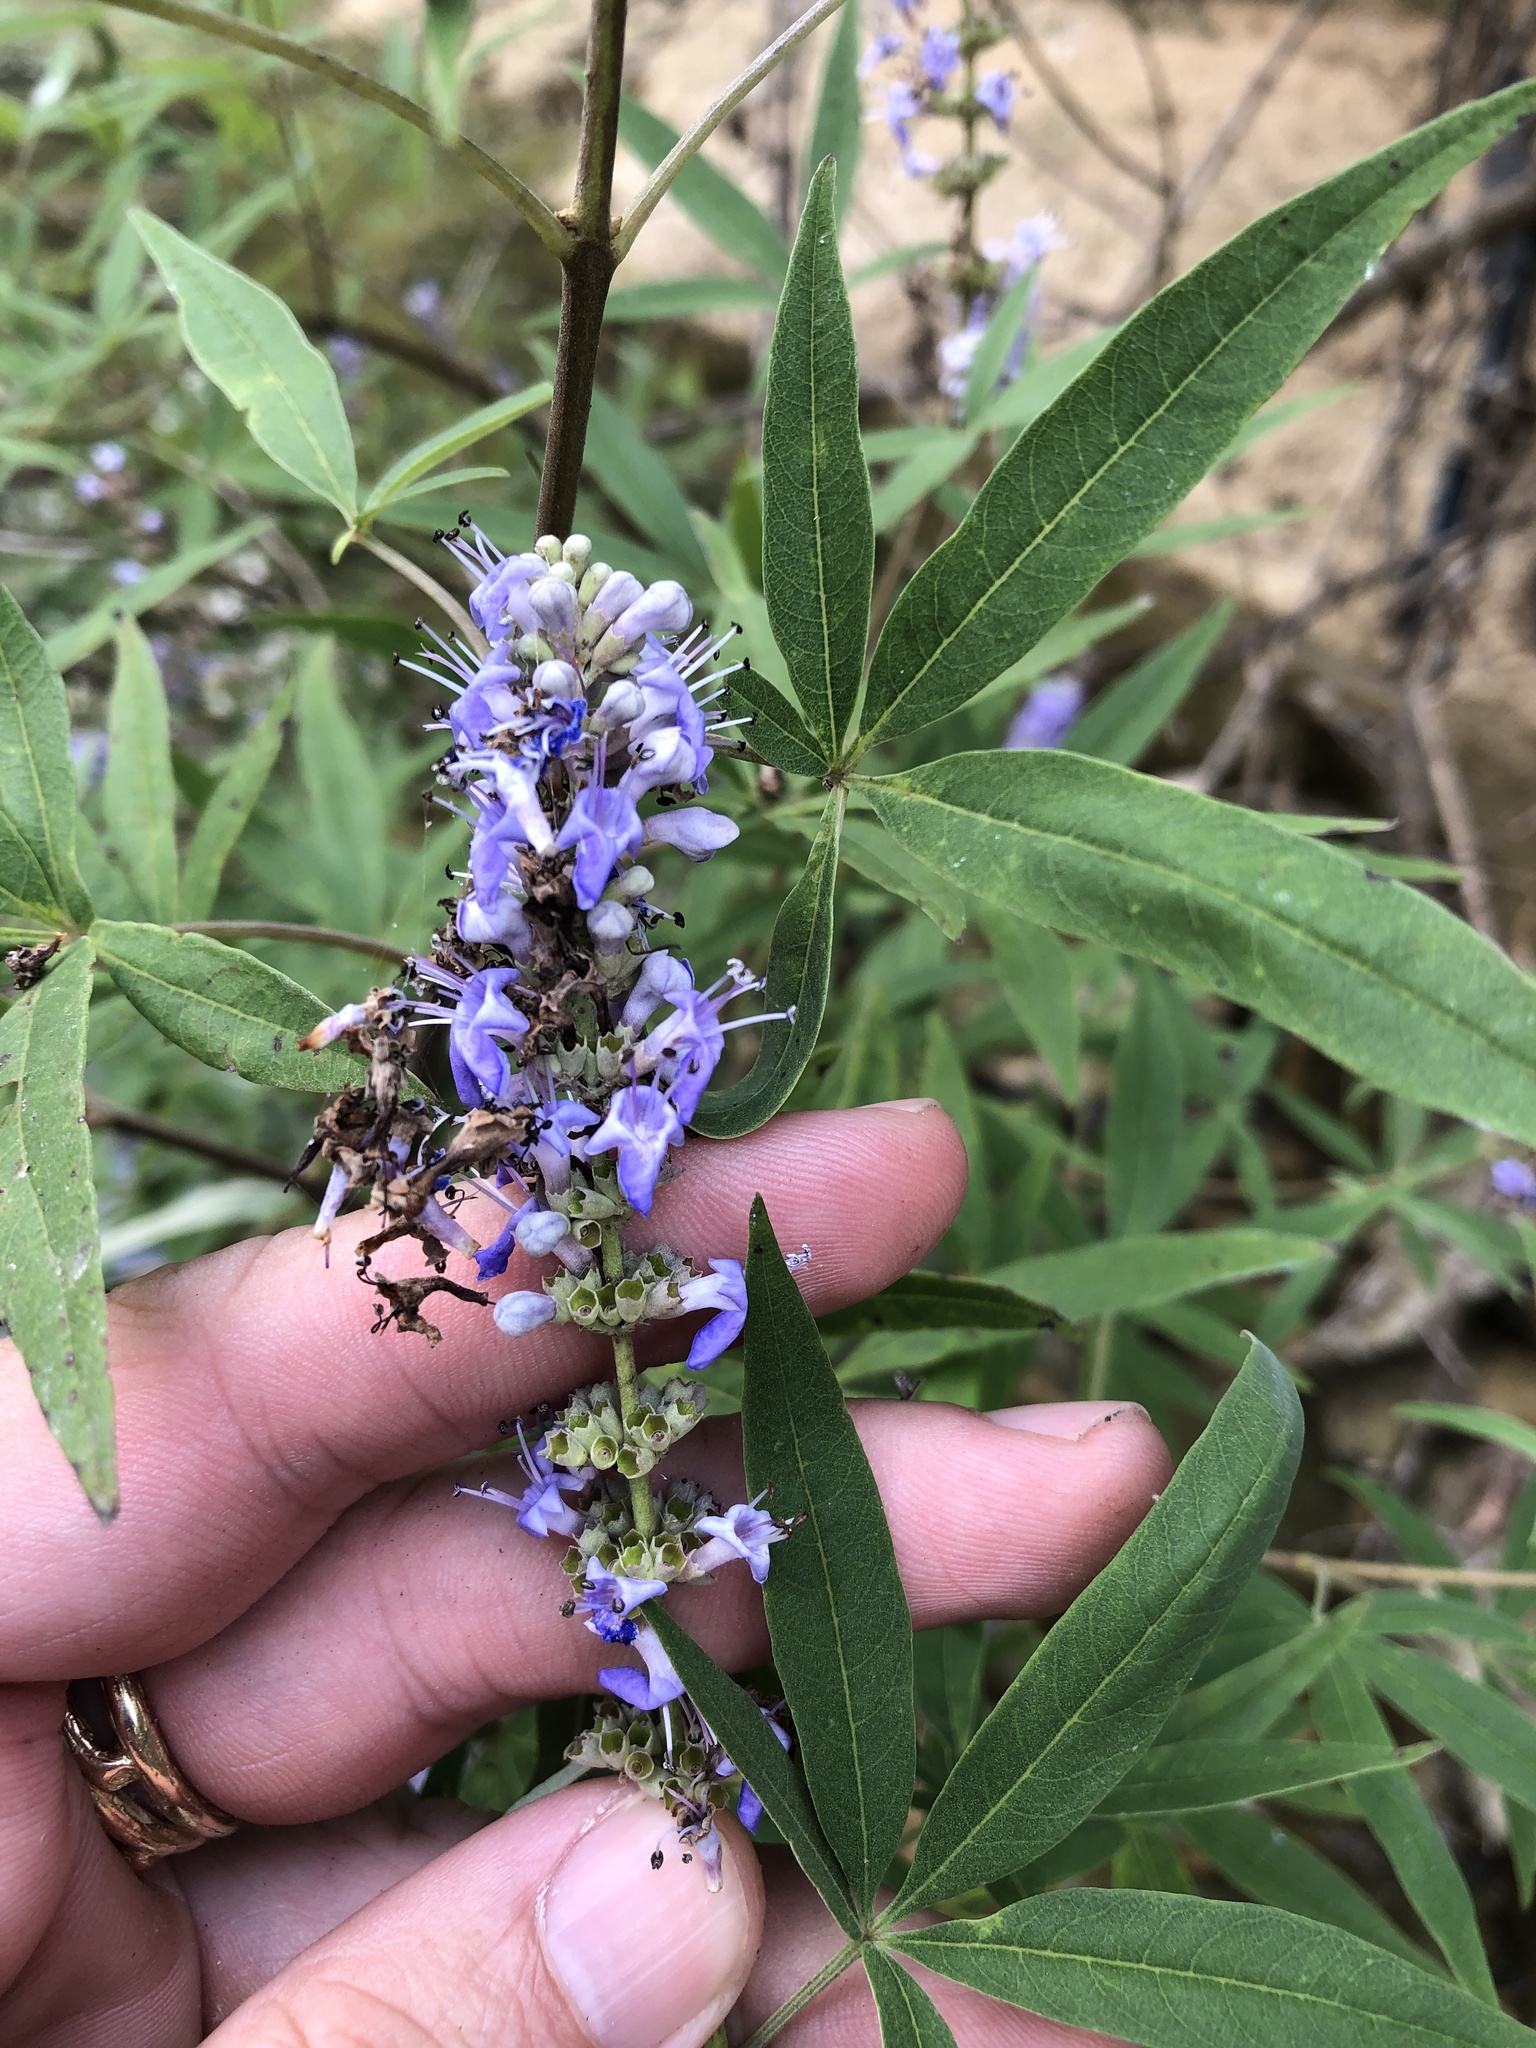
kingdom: Plantae
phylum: Tracheophyta
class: Magnoliopsida
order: Lamiales
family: Lamiaceae
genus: Vitex
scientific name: Vitex agnus-castus
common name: Chasteberry
